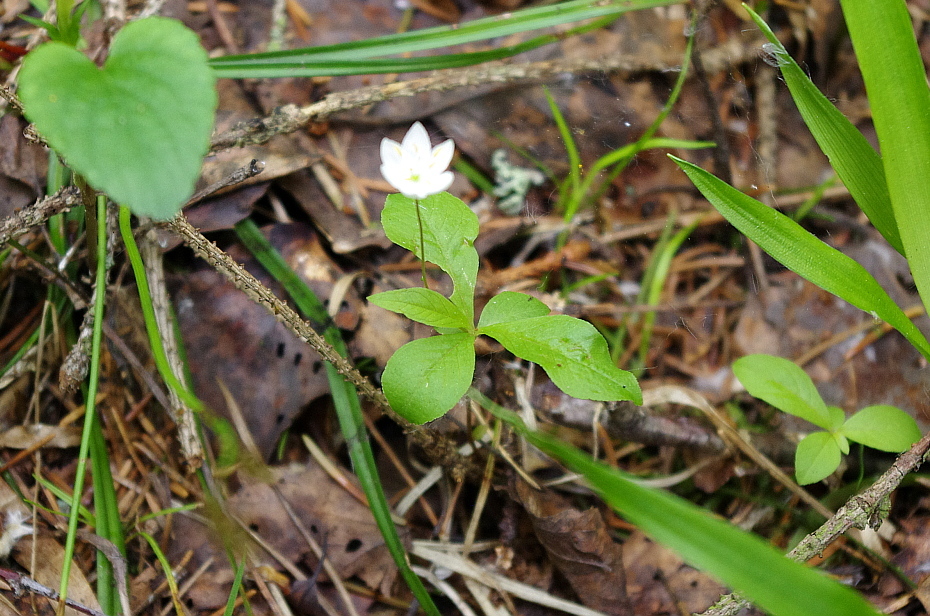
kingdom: Plantae
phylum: Tracheophyta
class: Magnoliopsida
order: Ericales
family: Primulaceae
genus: Lysimachia
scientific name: Lysimachia europaea
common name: Arctic starflower
